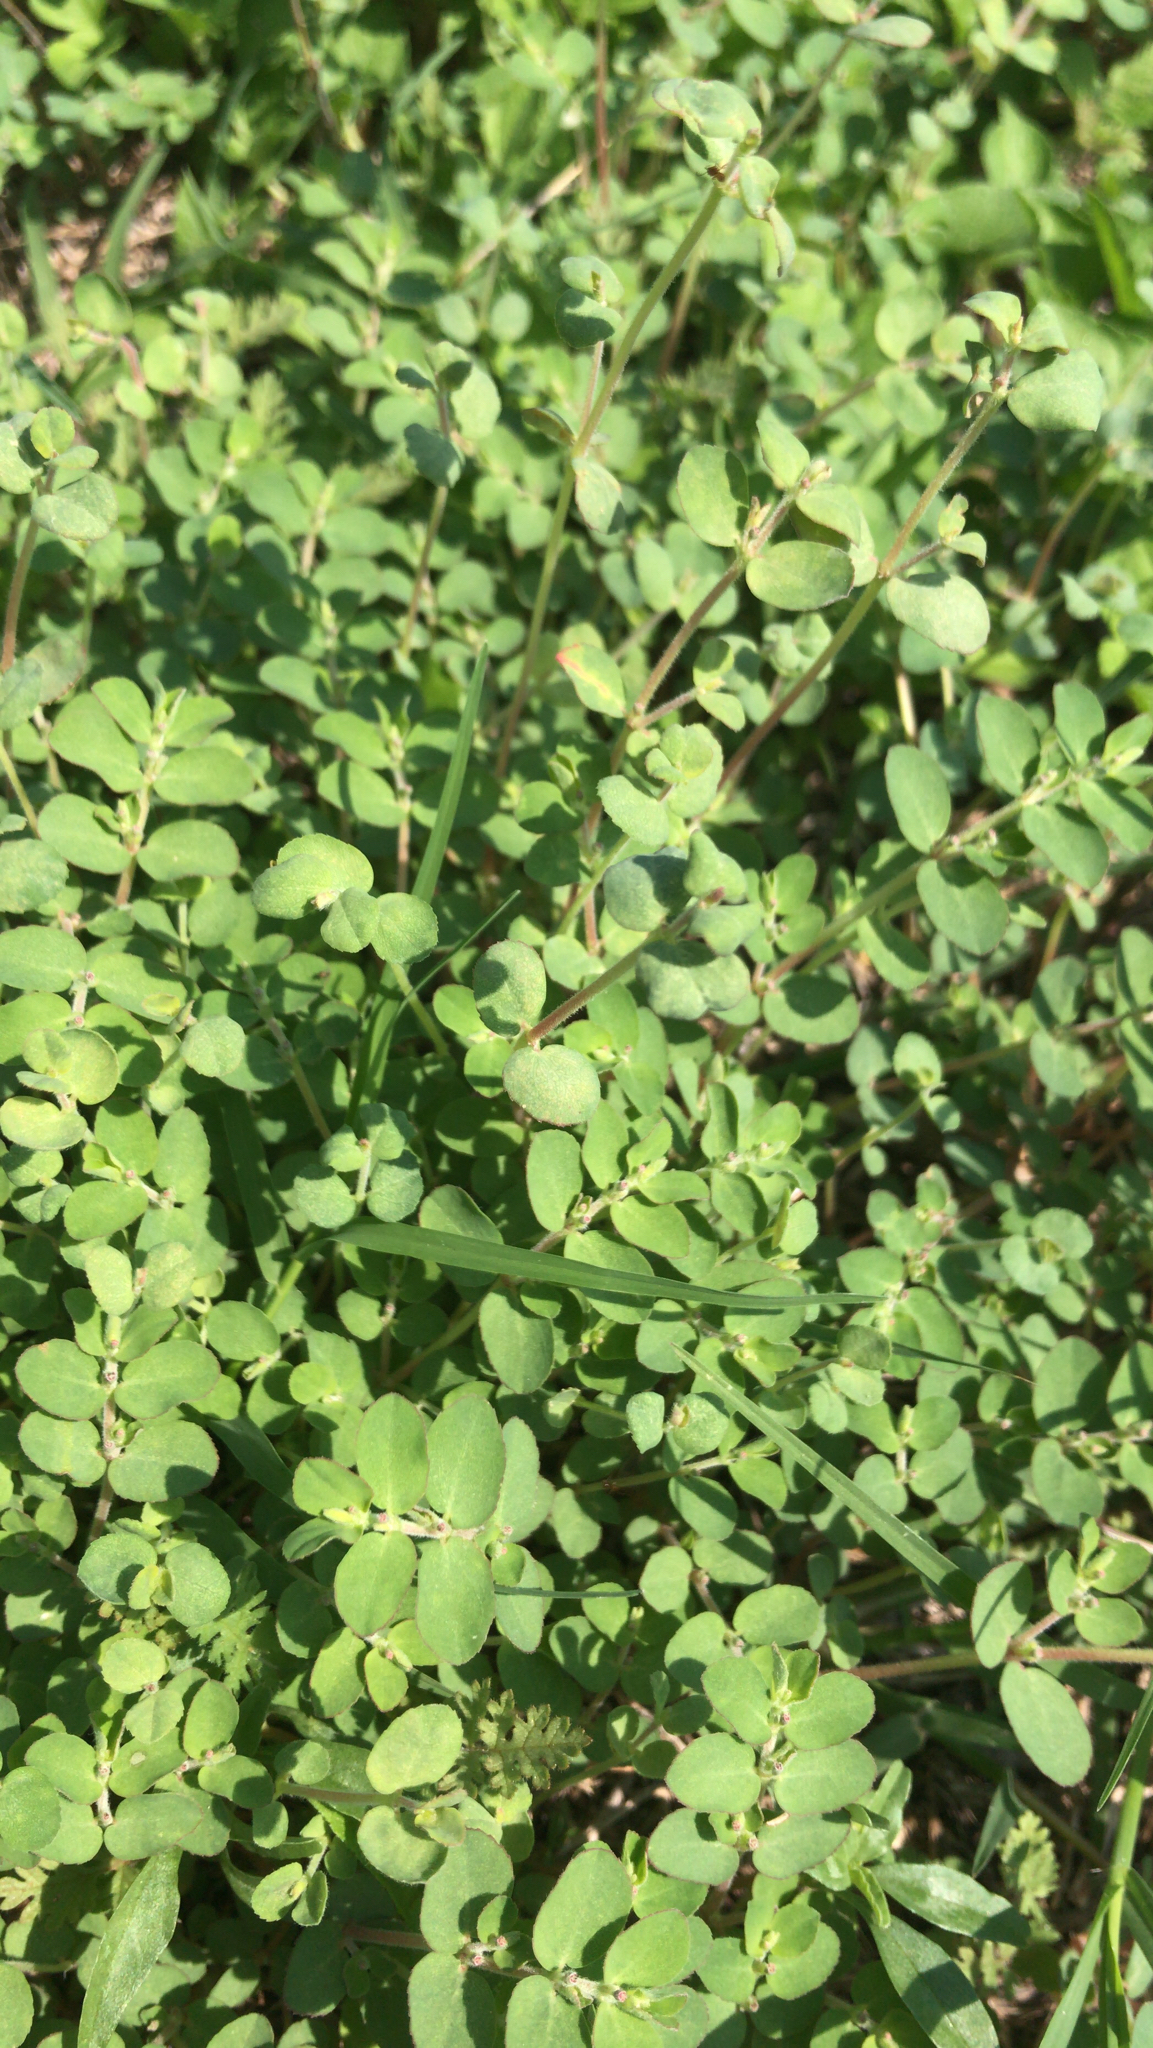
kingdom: Plantae
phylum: Tracheophyta
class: Magnoliopsida
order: Malpighiales
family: Euphorbiaceae
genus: Euphorbia
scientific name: Euphorbia prostrata
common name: Prostrate sandmat
